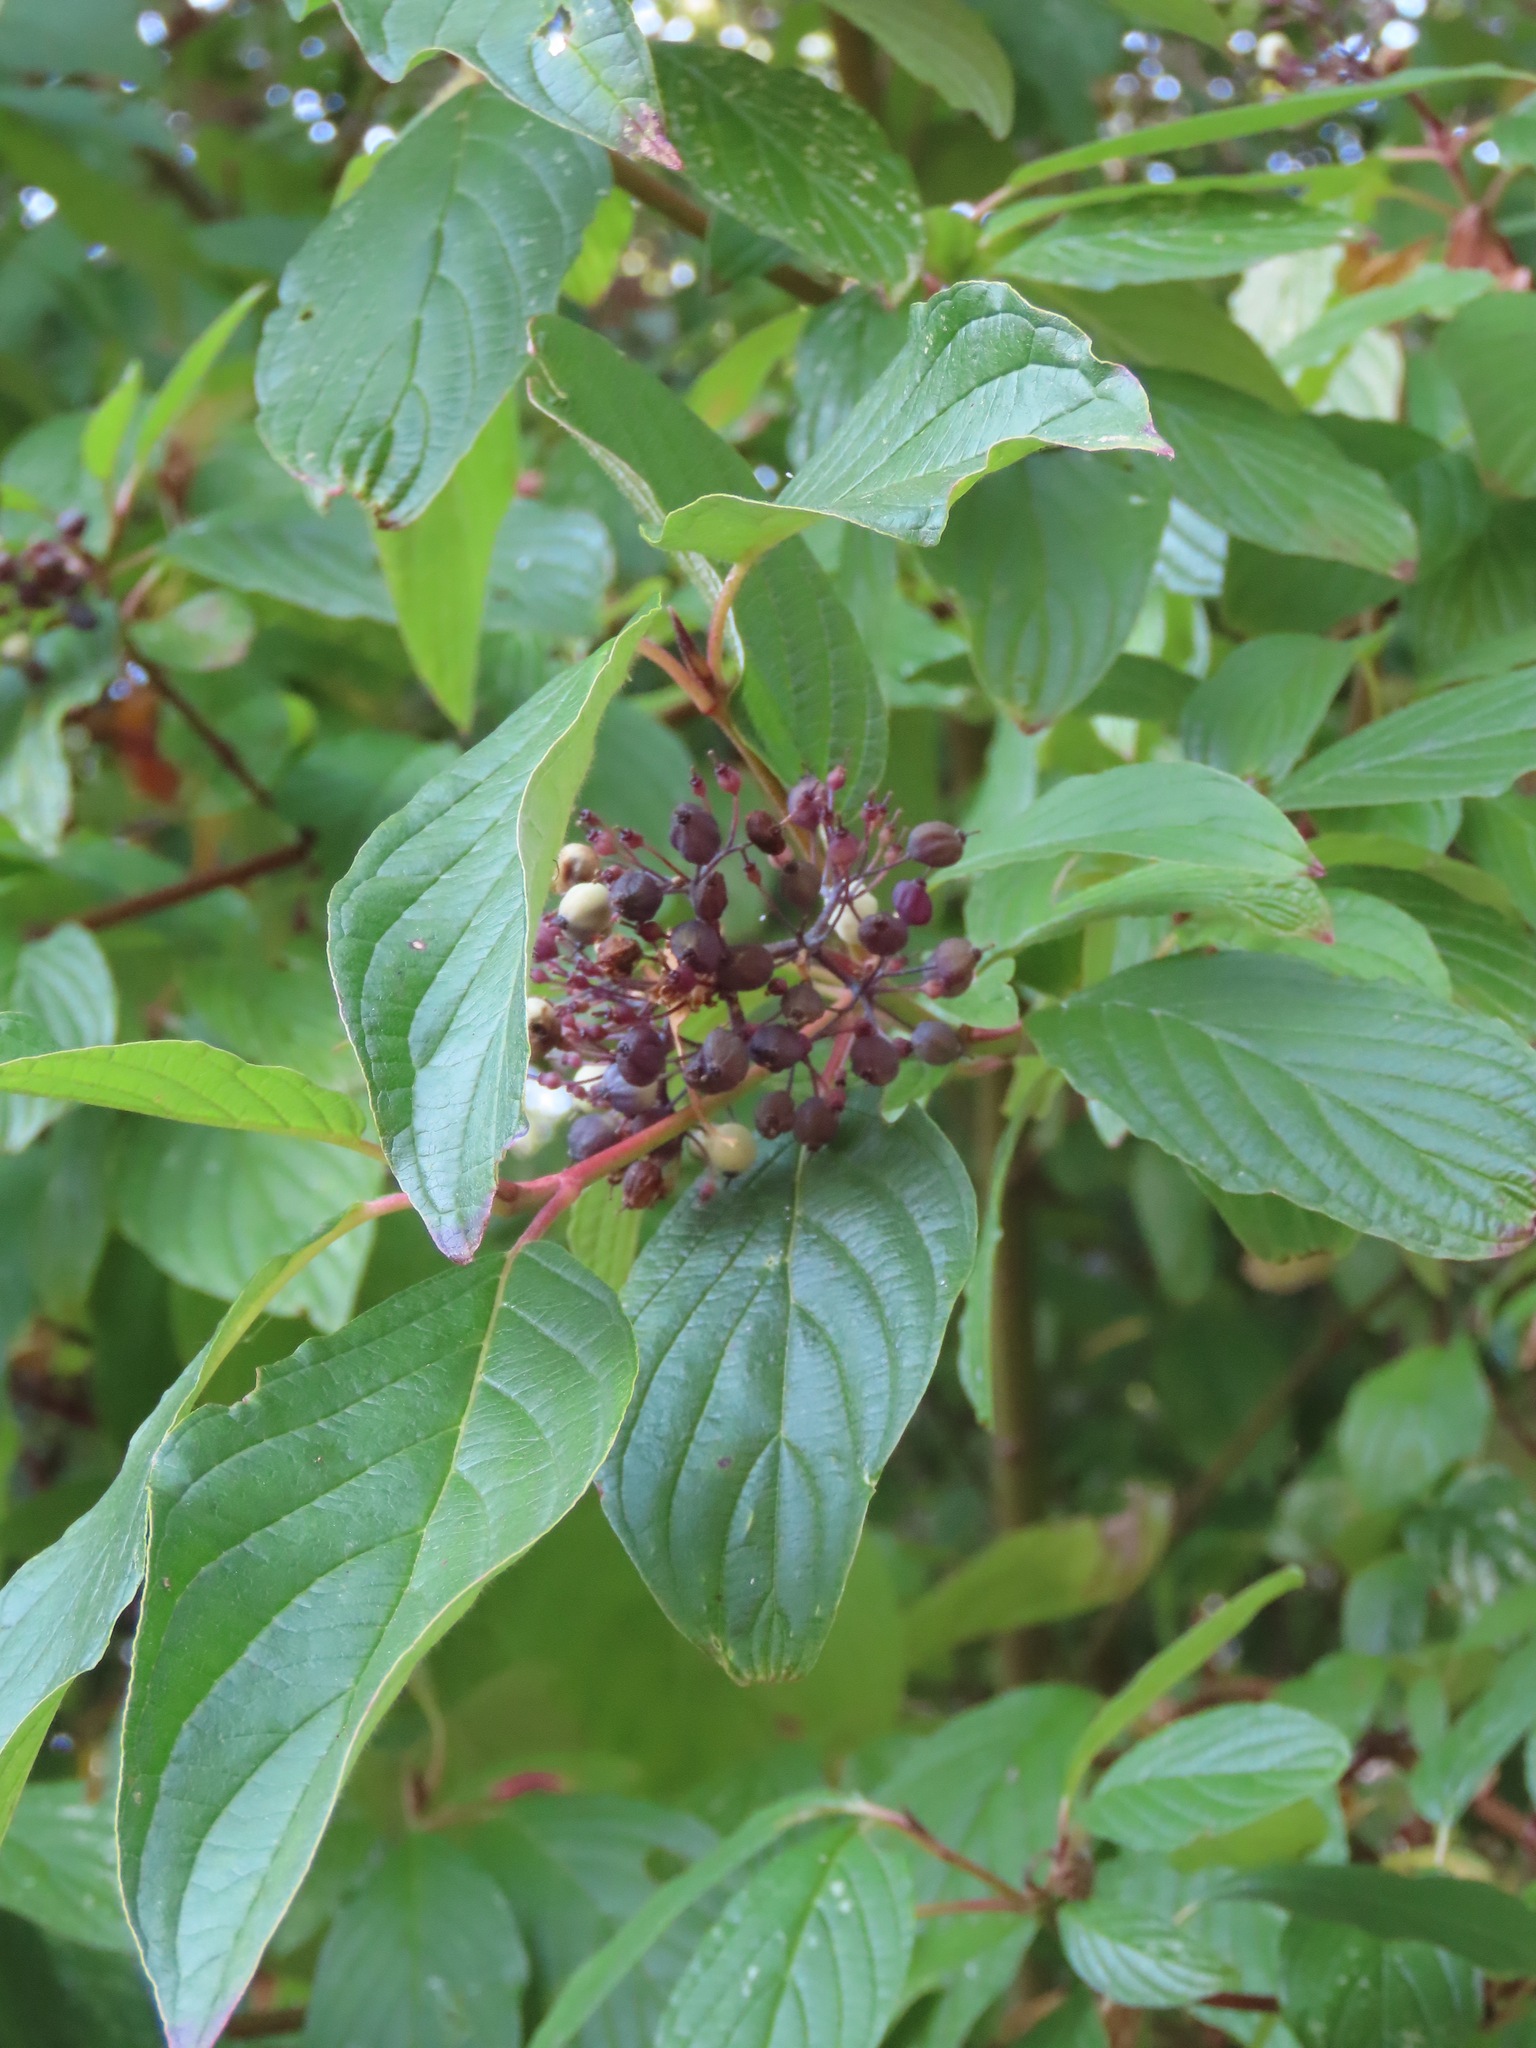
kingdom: Plantae
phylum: Tracheophyta
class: Magnoliopsida
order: Cornales
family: Cornaceae
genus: Cornus
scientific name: Cornus sericea
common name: Red-osier dogwood
